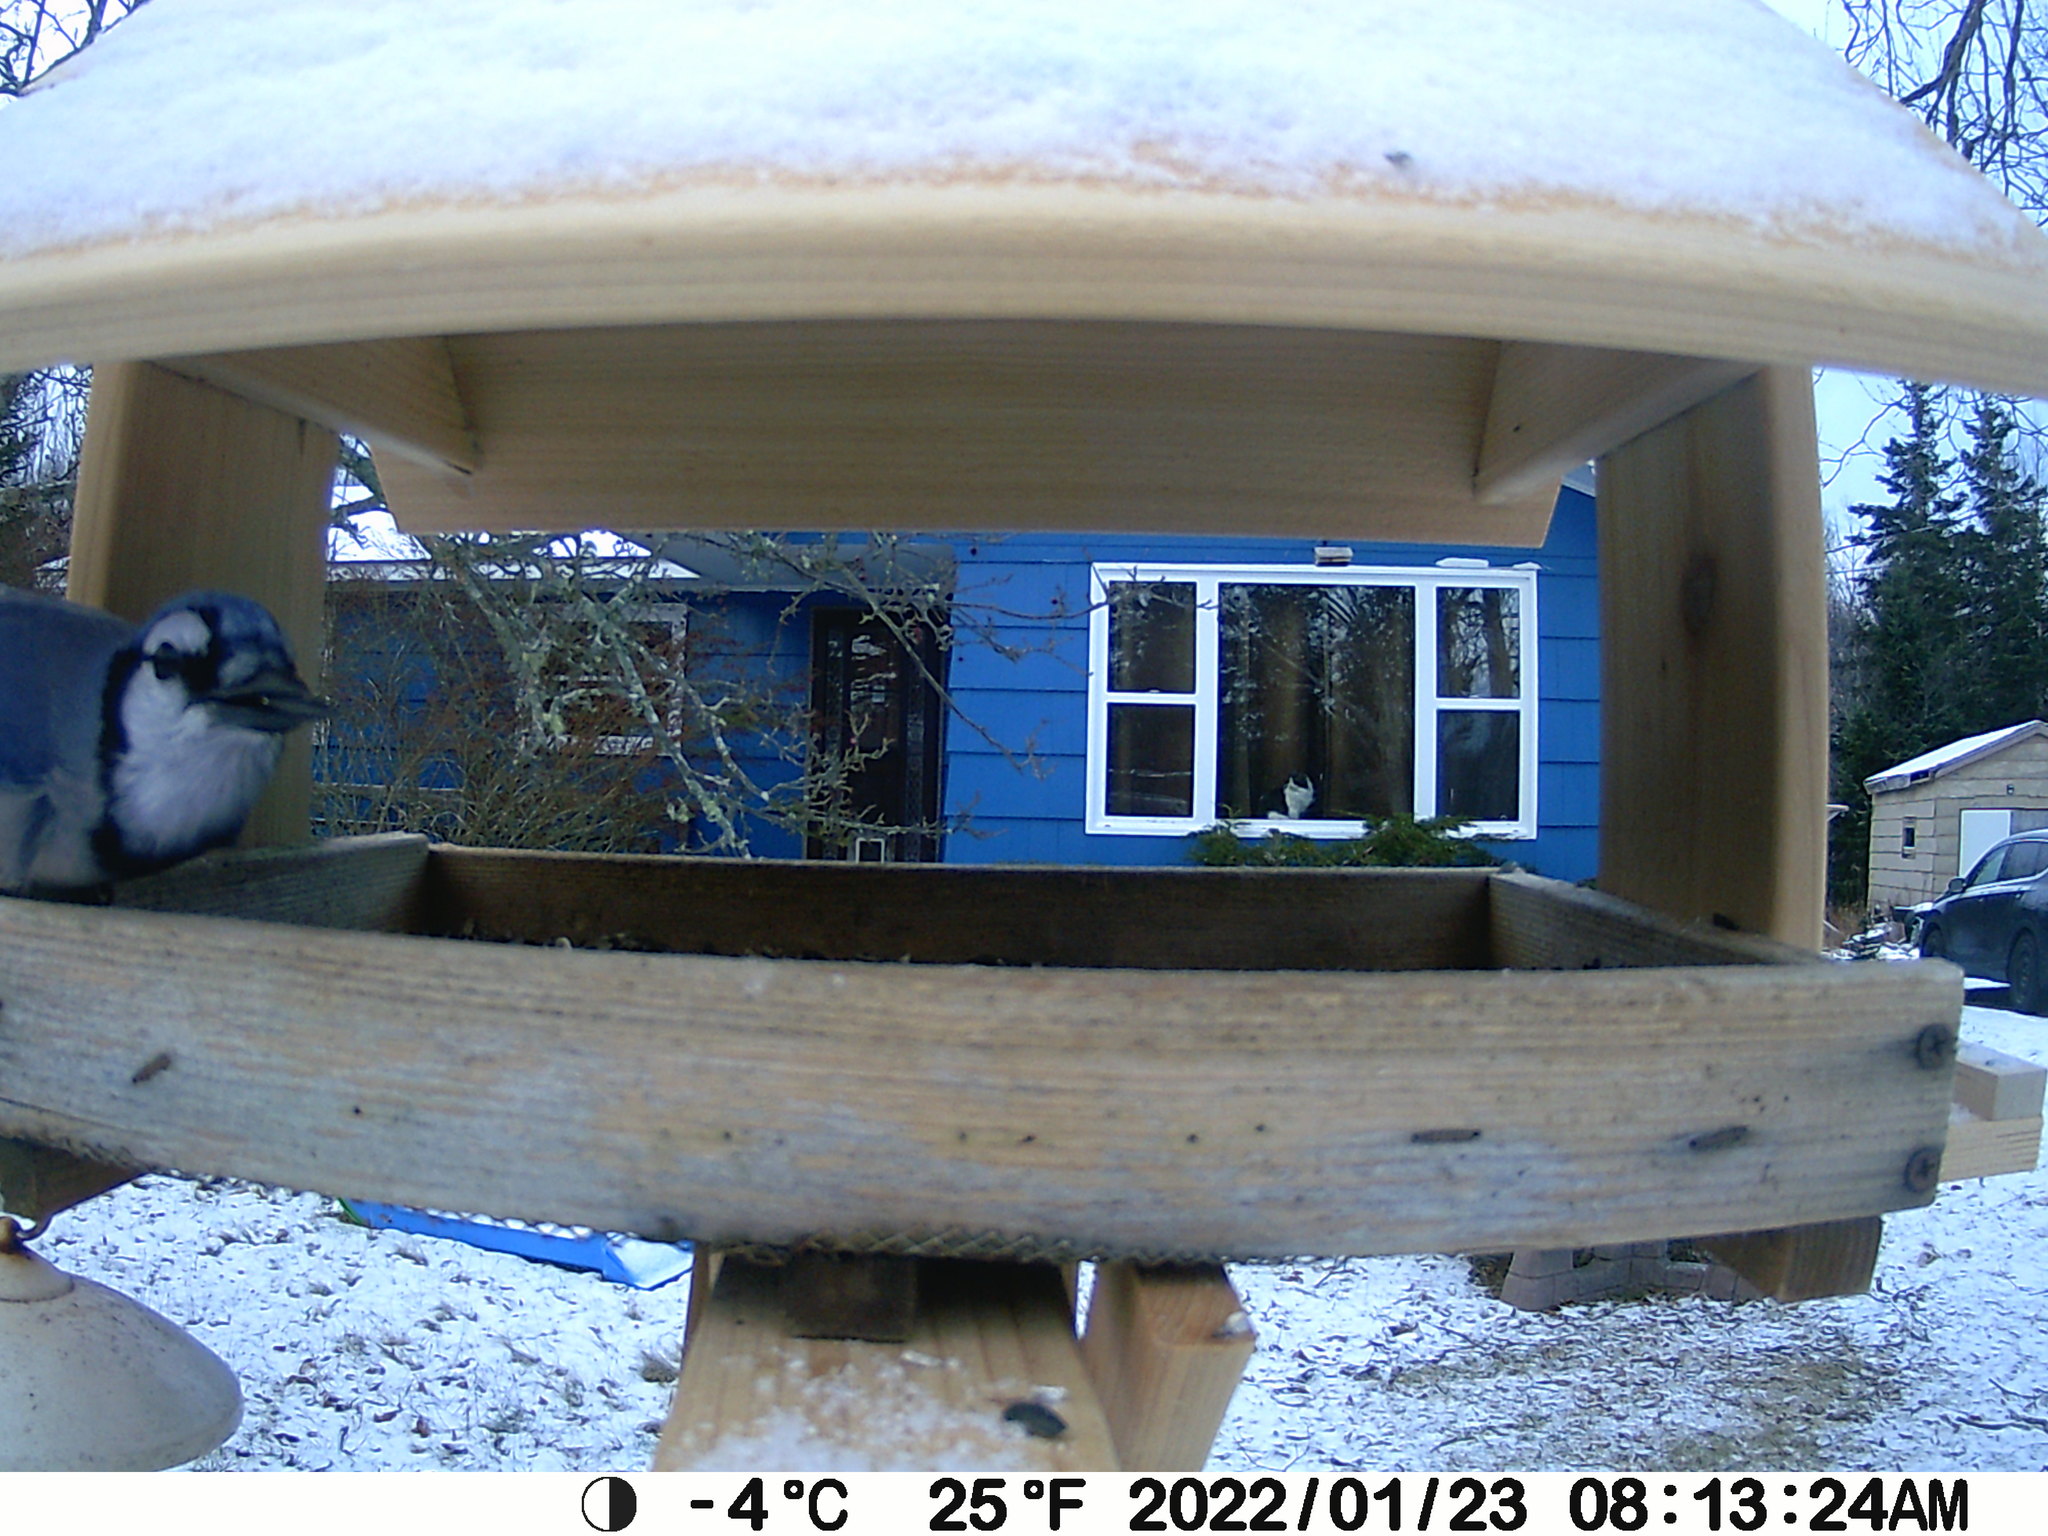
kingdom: Animalia
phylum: Chordata
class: Aves
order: Passeriformes
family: Corvidae
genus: Cyanocitta
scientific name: Cyanocitta cristata
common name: Blue jay
